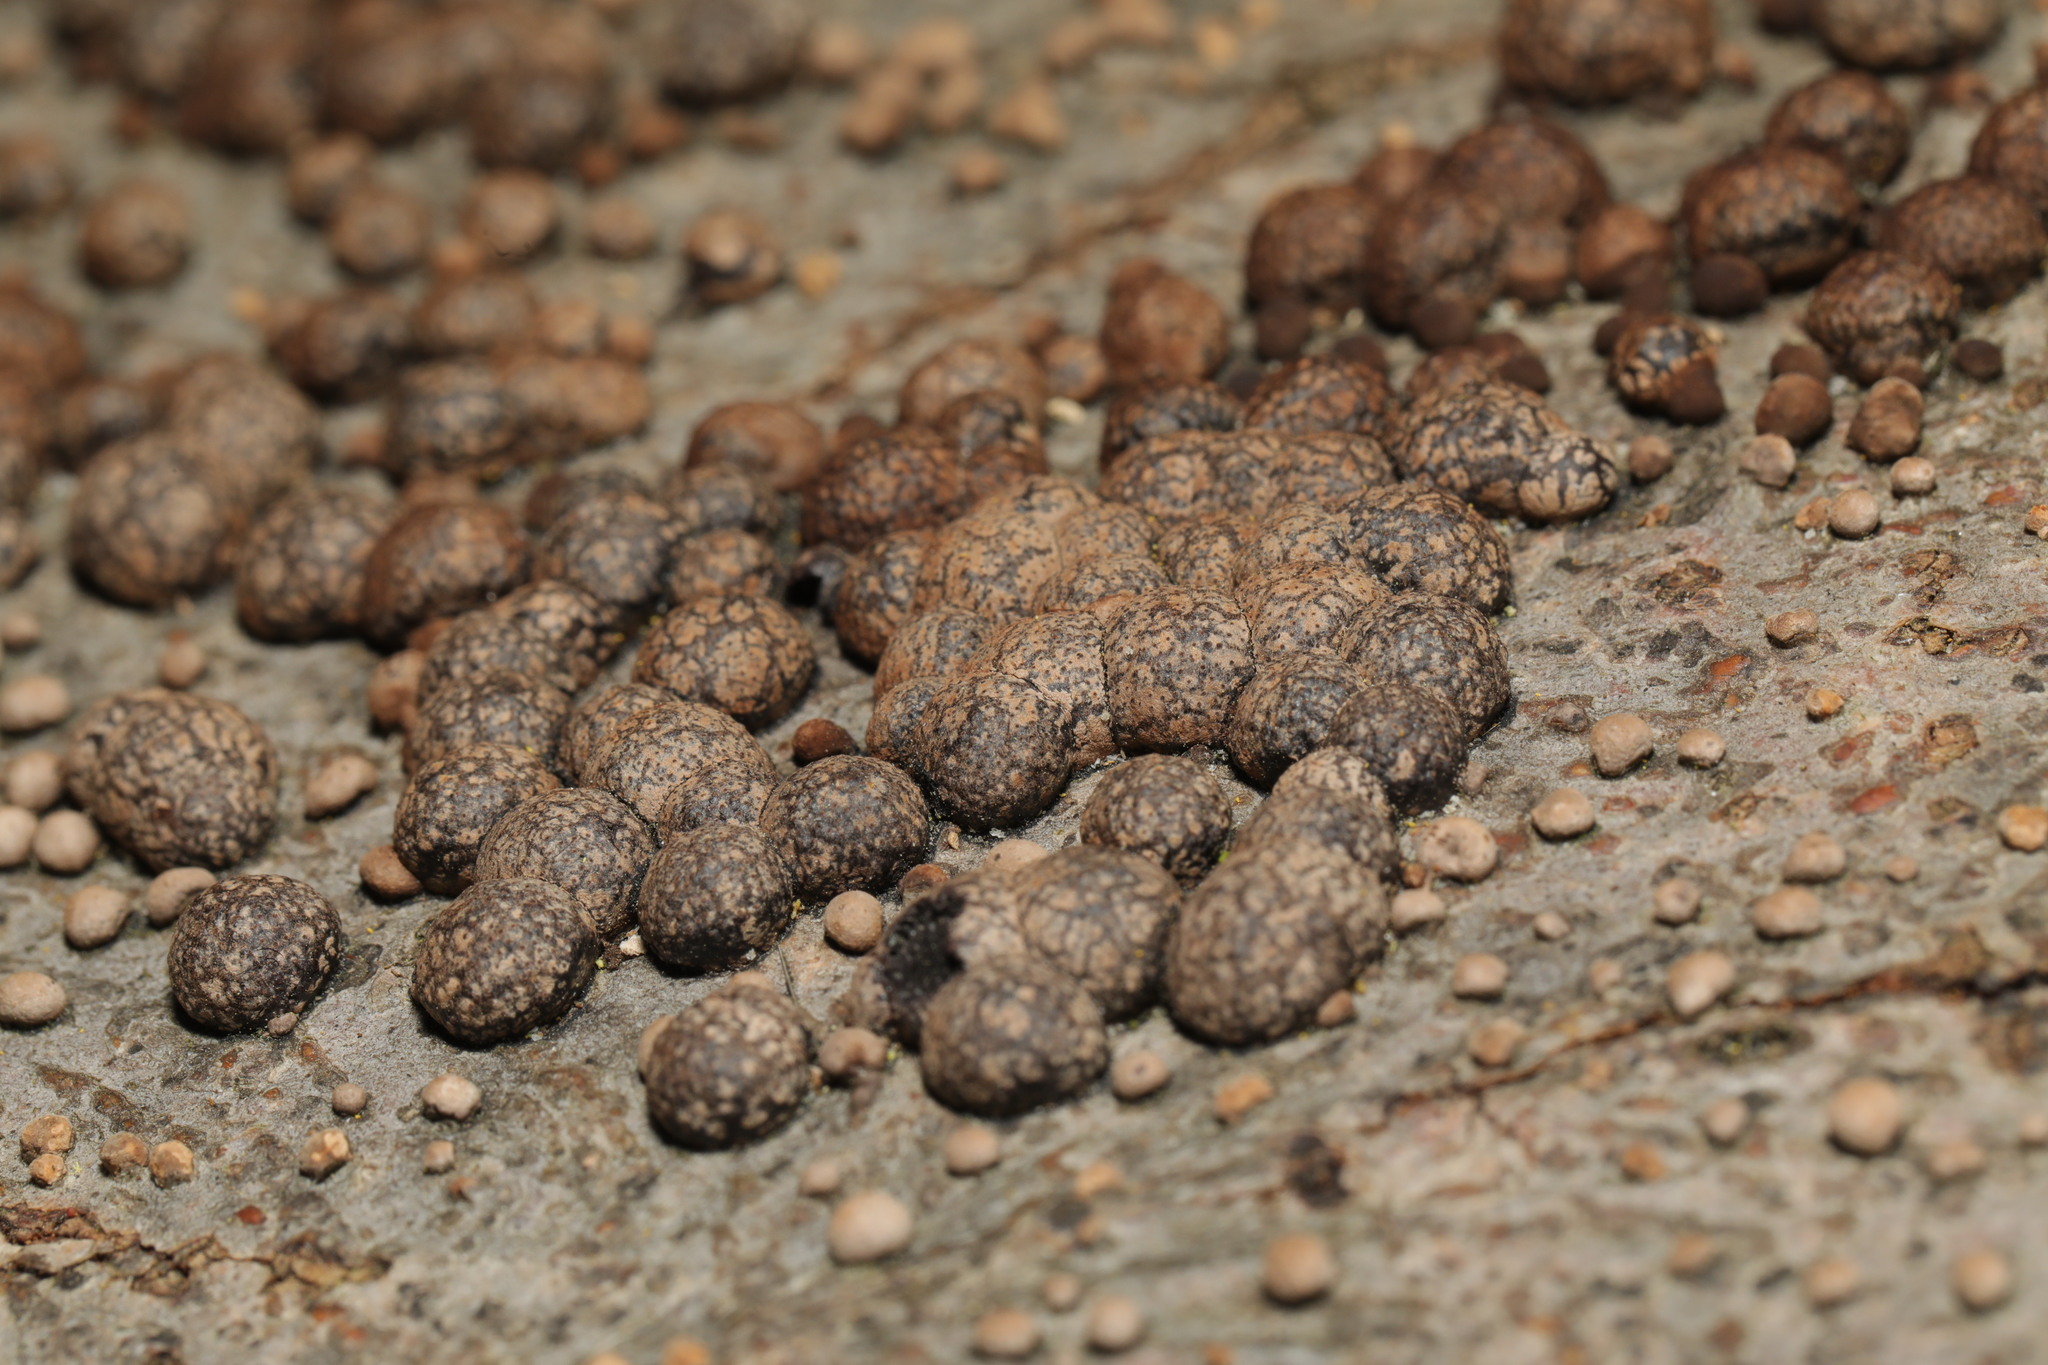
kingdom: Fungi
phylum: Ascomycota
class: Sordariomycetes
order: Xylariales
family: Hypoxylaceae
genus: Hypoxylon
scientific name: Hypoxylon fragiforme
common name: Beech woodwart
